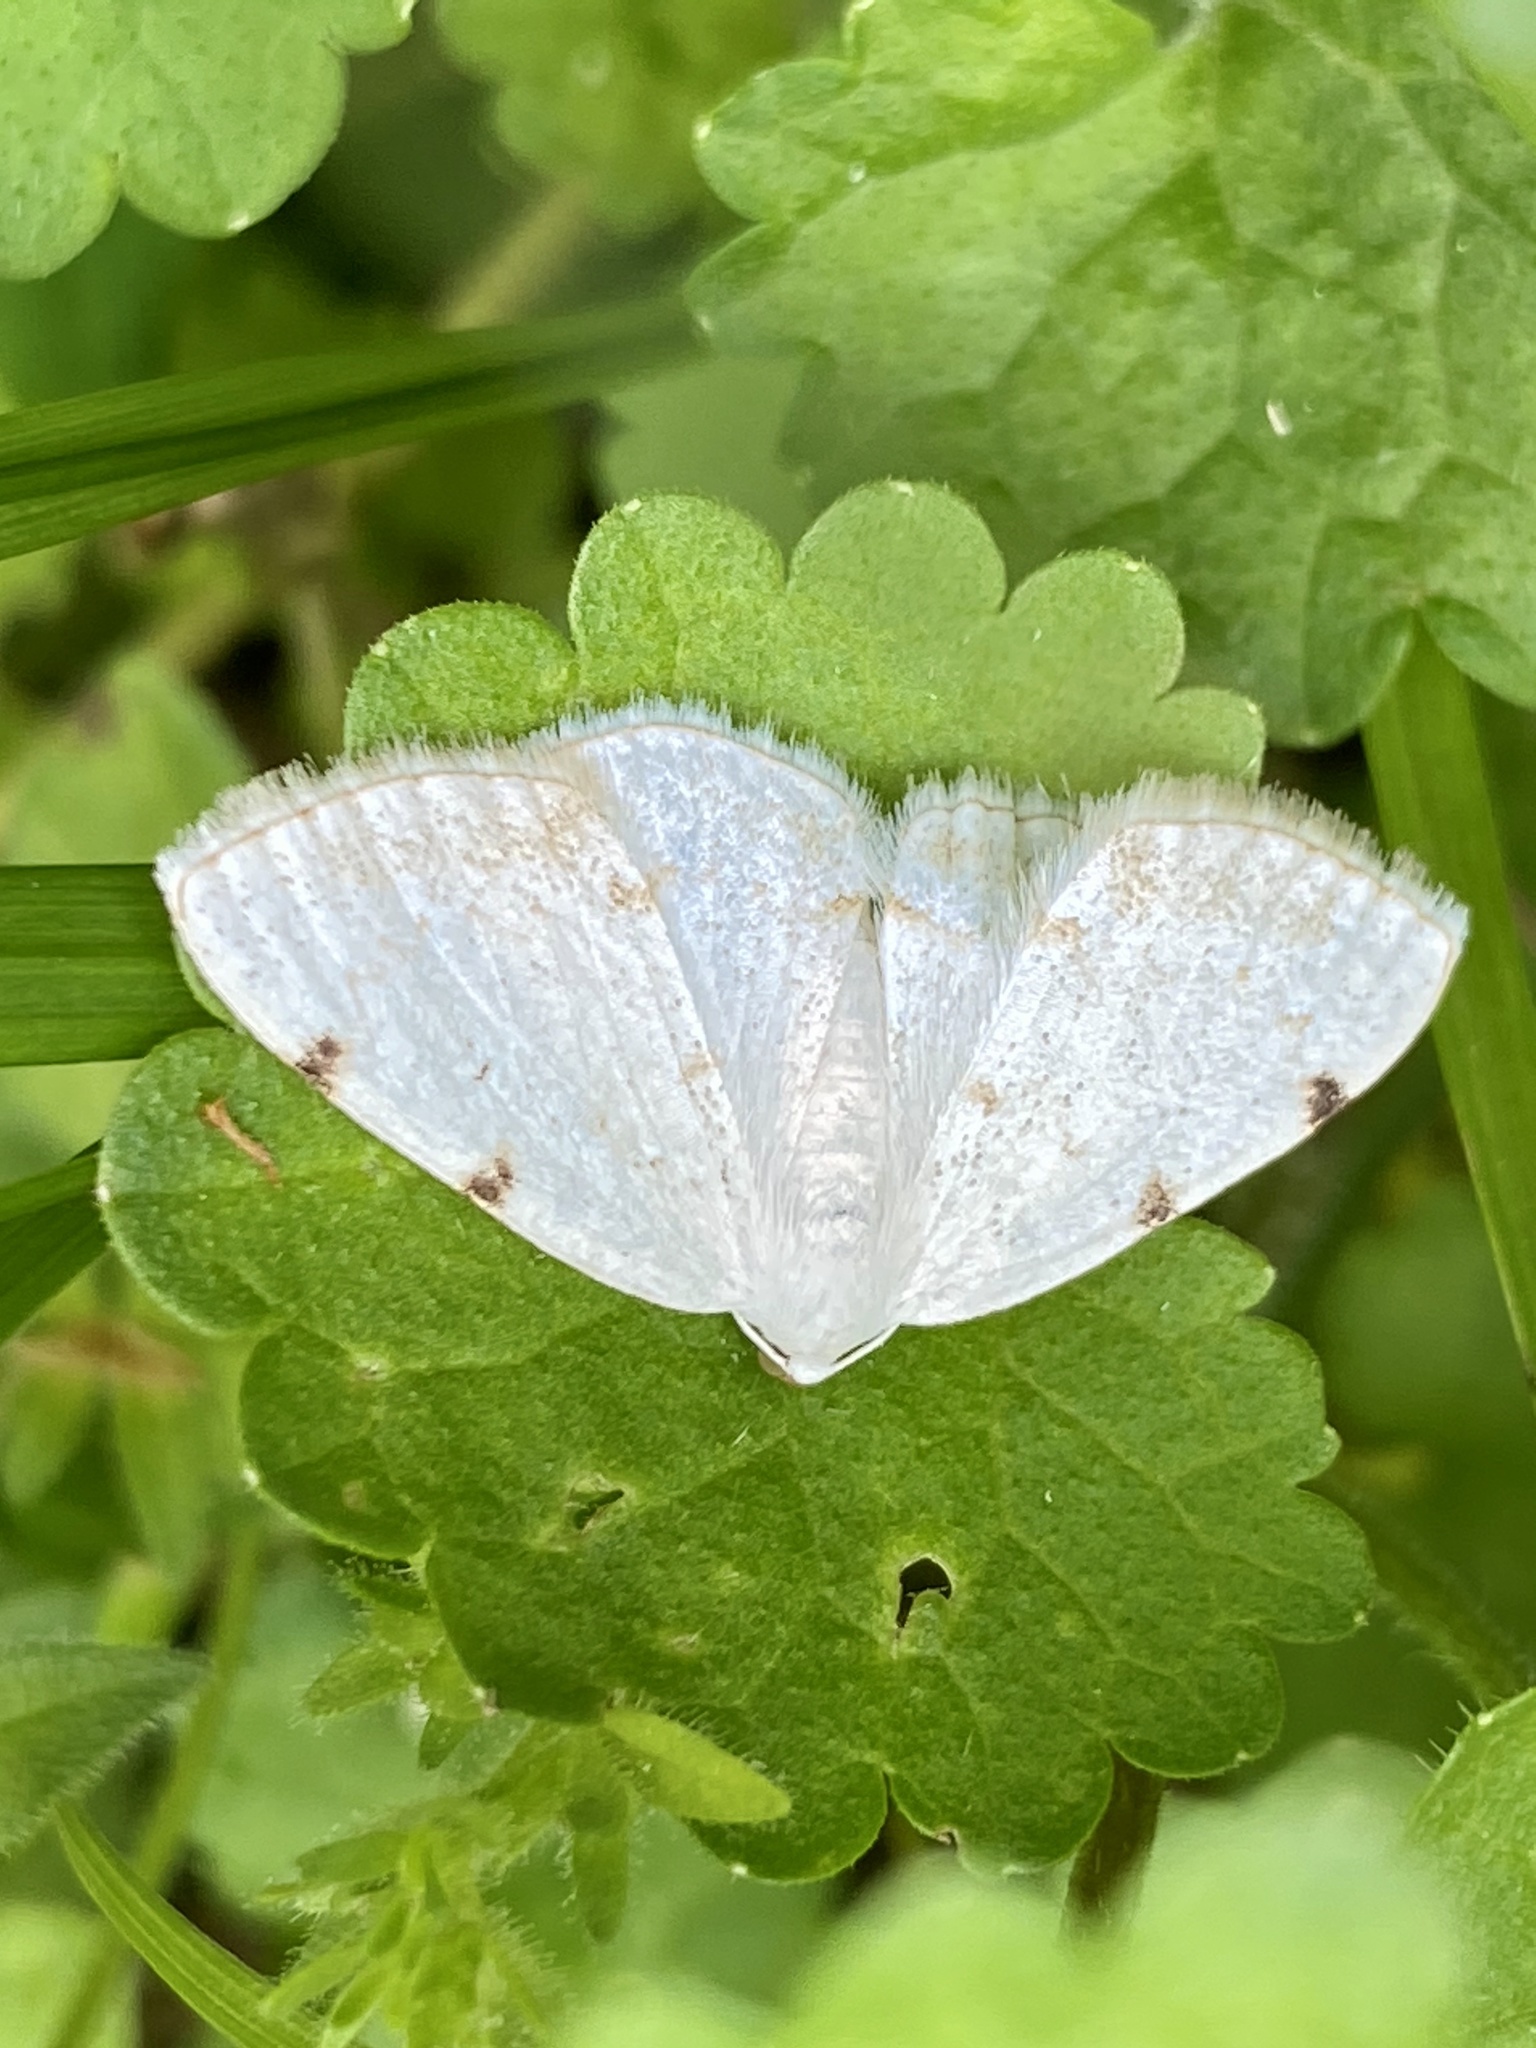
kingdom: Animalia
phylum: Arthropoda
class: Insecta
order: Lepidoptera
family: Geometridae
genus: Lomographa
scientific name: Lomographa bimaculata
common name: White-pinion spotted
